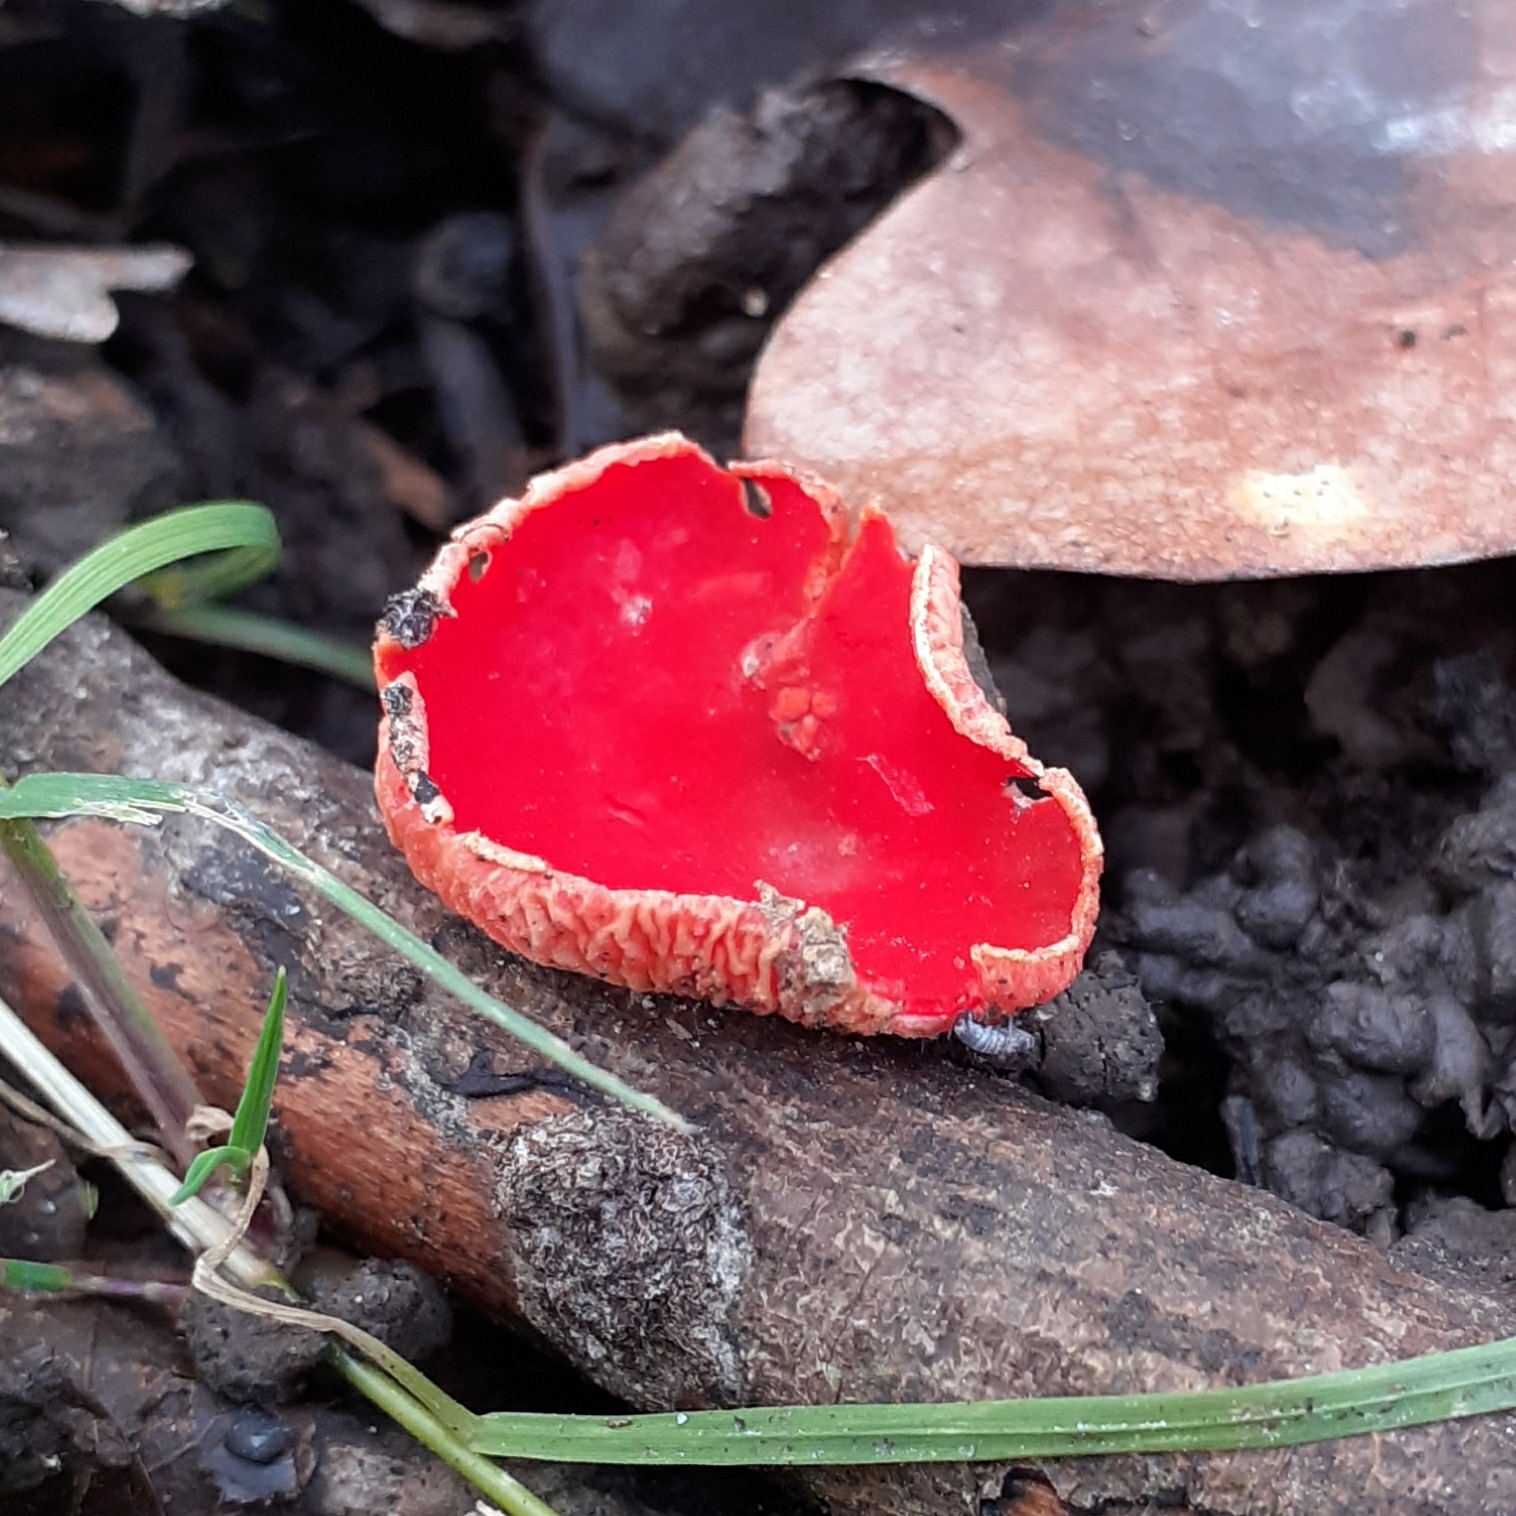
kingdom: Fungi
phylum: Ascomycota
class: Pezizomycetes
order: Pezizales
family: Sarcoscyphaceae
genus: Sarcoscypha
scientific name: Sarcoscypha
